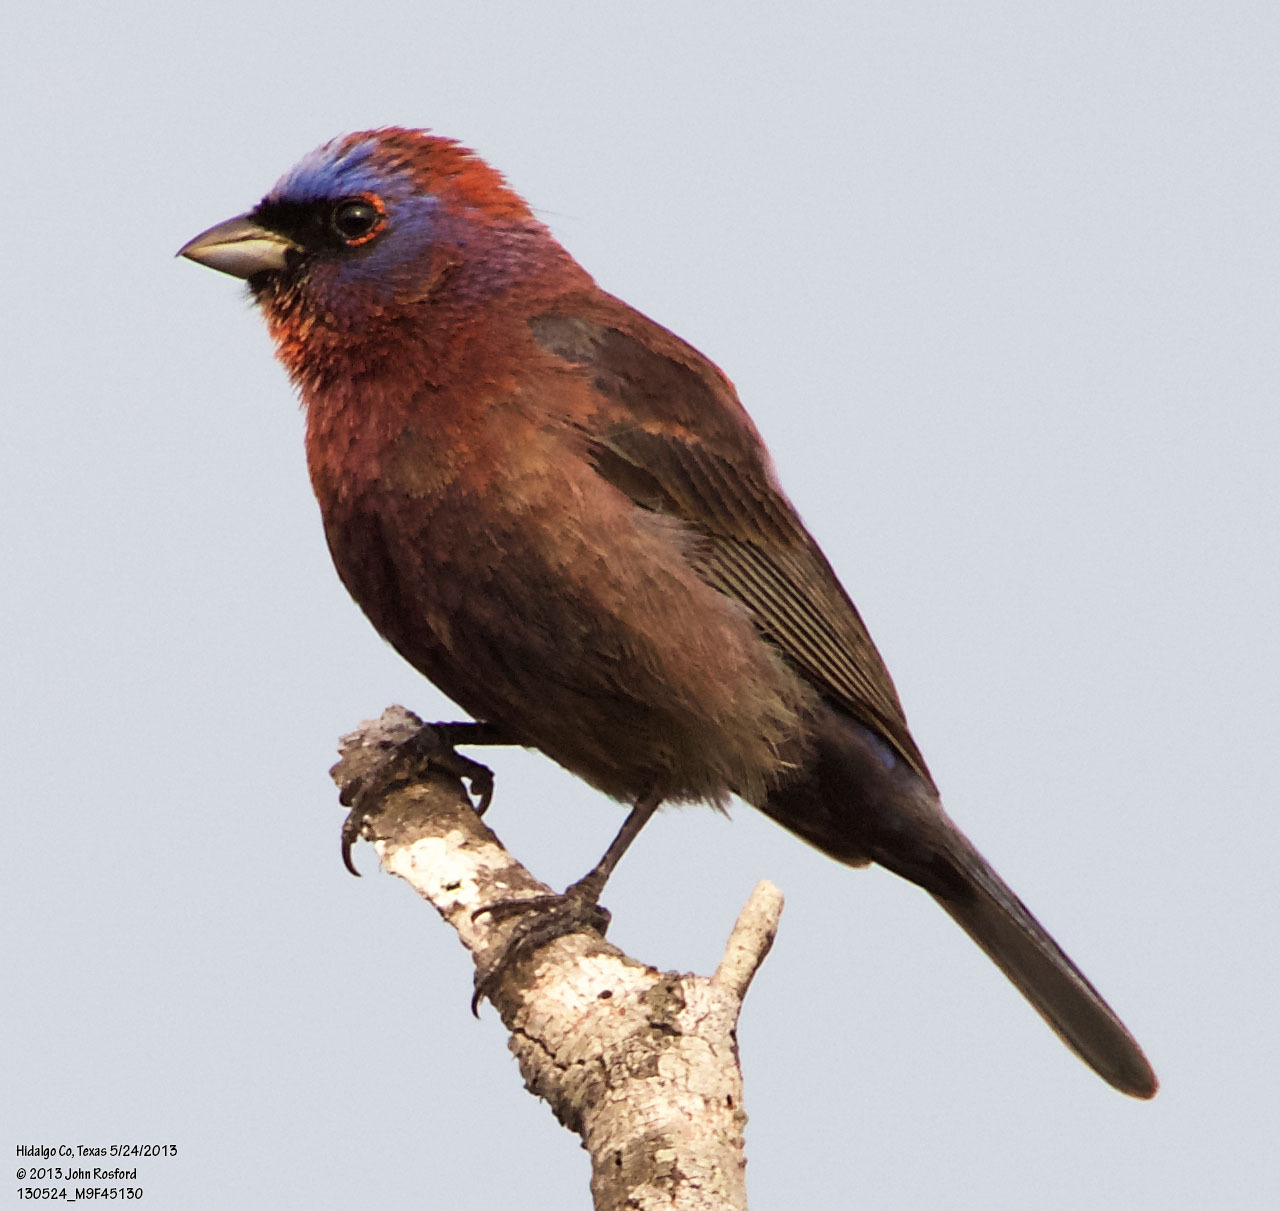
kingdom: Animalia
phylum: Chordata
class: Aves
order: Passeriformes
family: Cardinalidae
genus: Passerina
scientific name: Passerina versicolor
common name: Varied bunting
